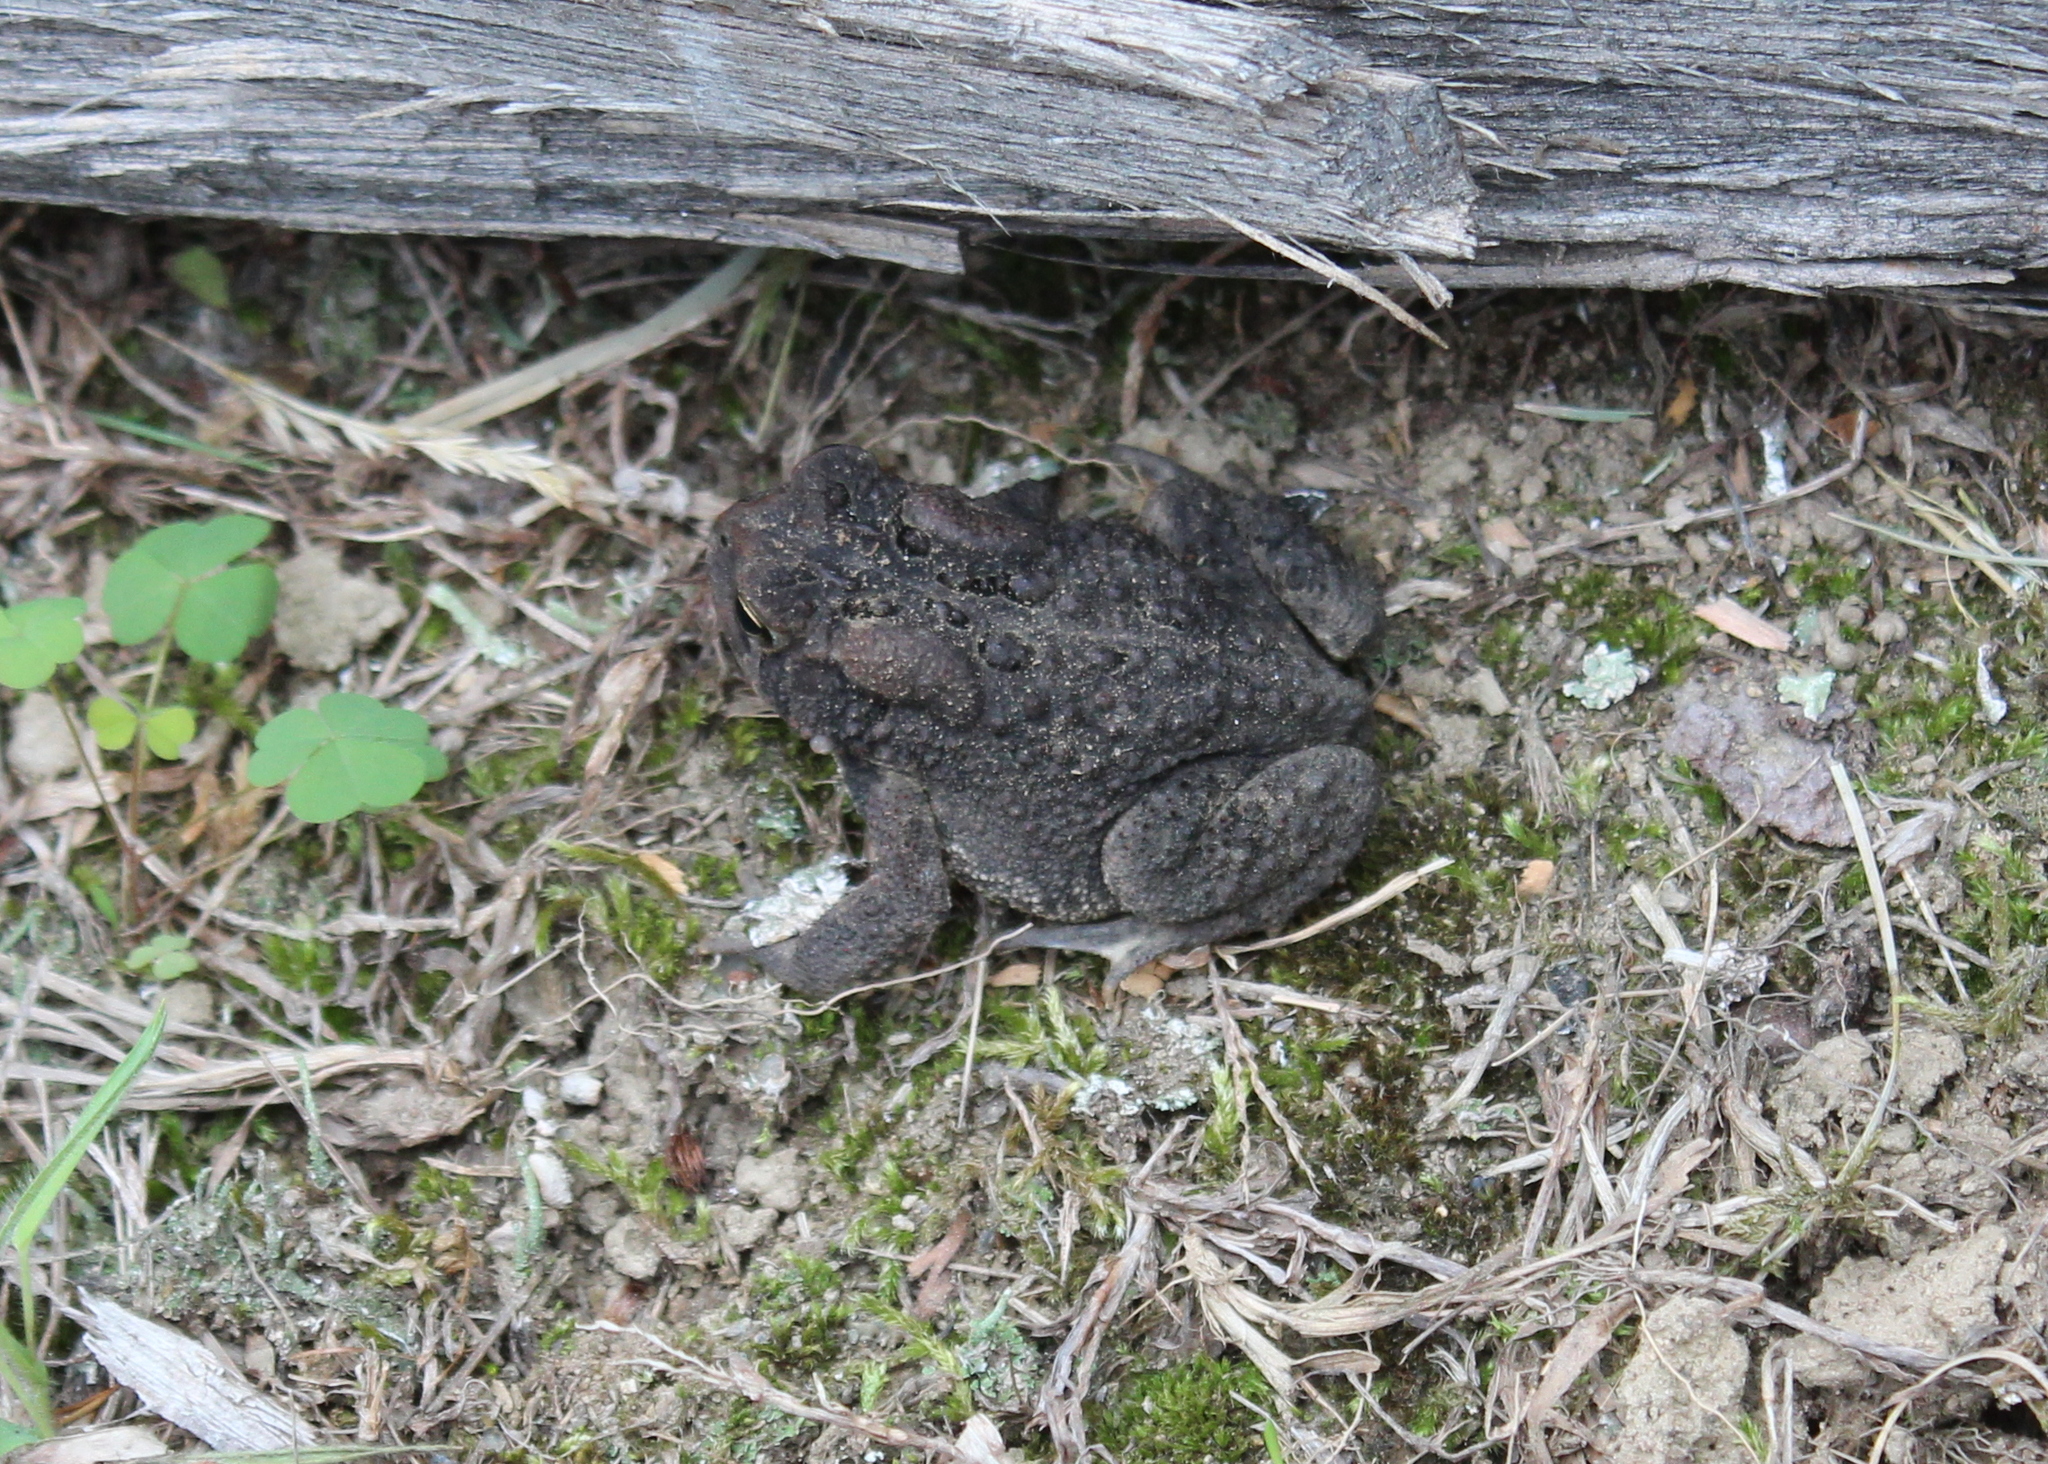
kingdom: Animalia
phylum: Chordata
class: Amphibia
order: Anura
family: Bufonidae
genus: Anaxyrus
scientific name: Anaxyrus americanus
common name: American toad
